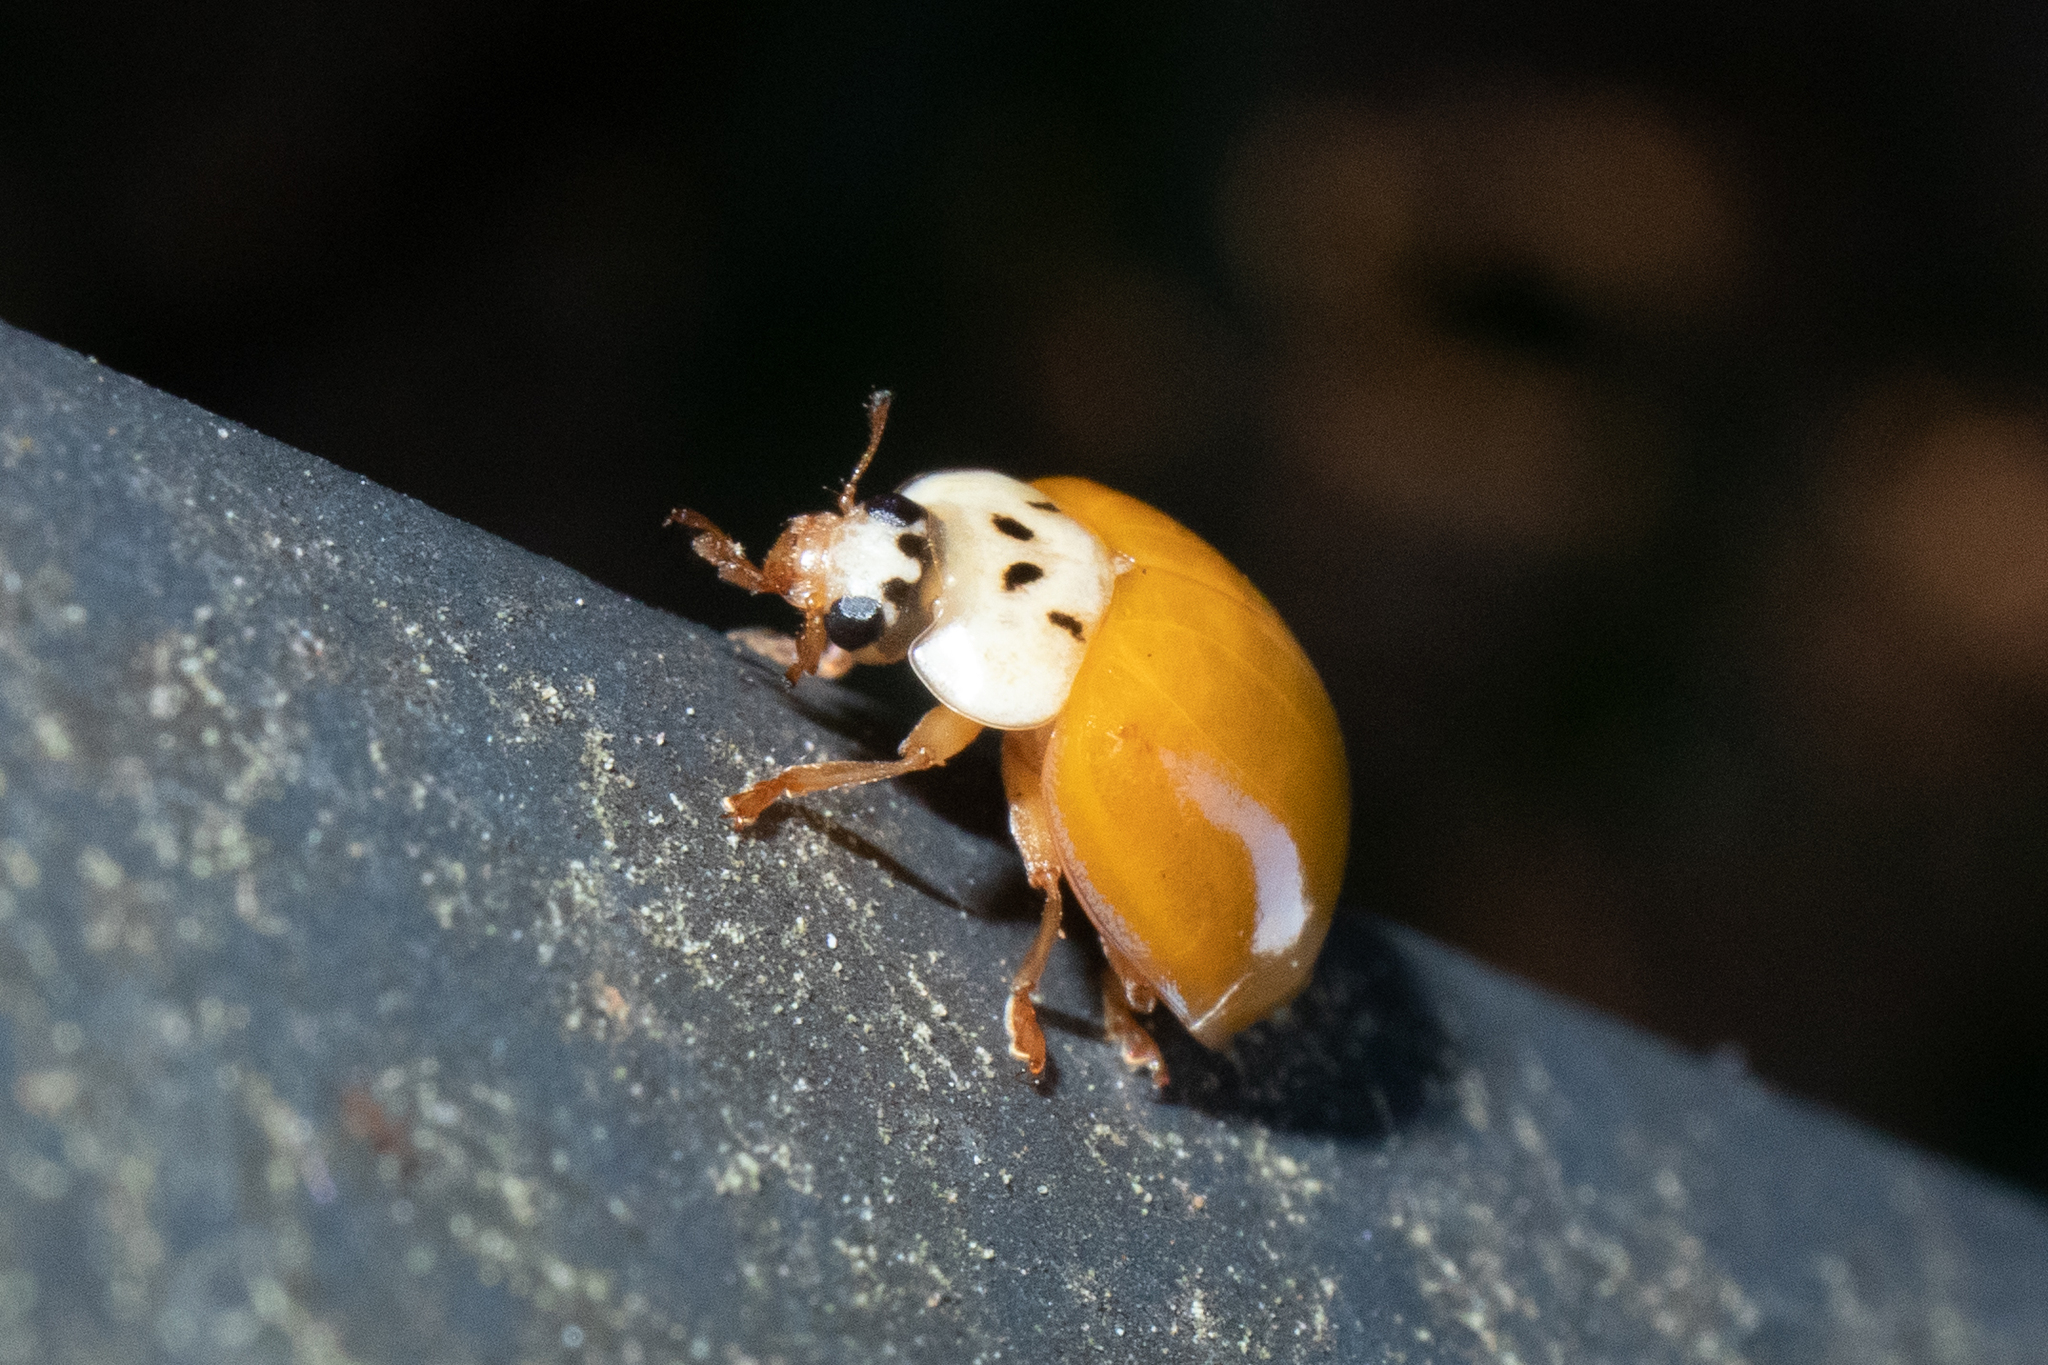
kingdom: Animalia
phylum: Arthropoda
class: Insecta
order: Coleoptera
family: Coccinellidae
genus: Harmonia
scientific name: Harmonia axyridis
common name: Harlequin ladybird
